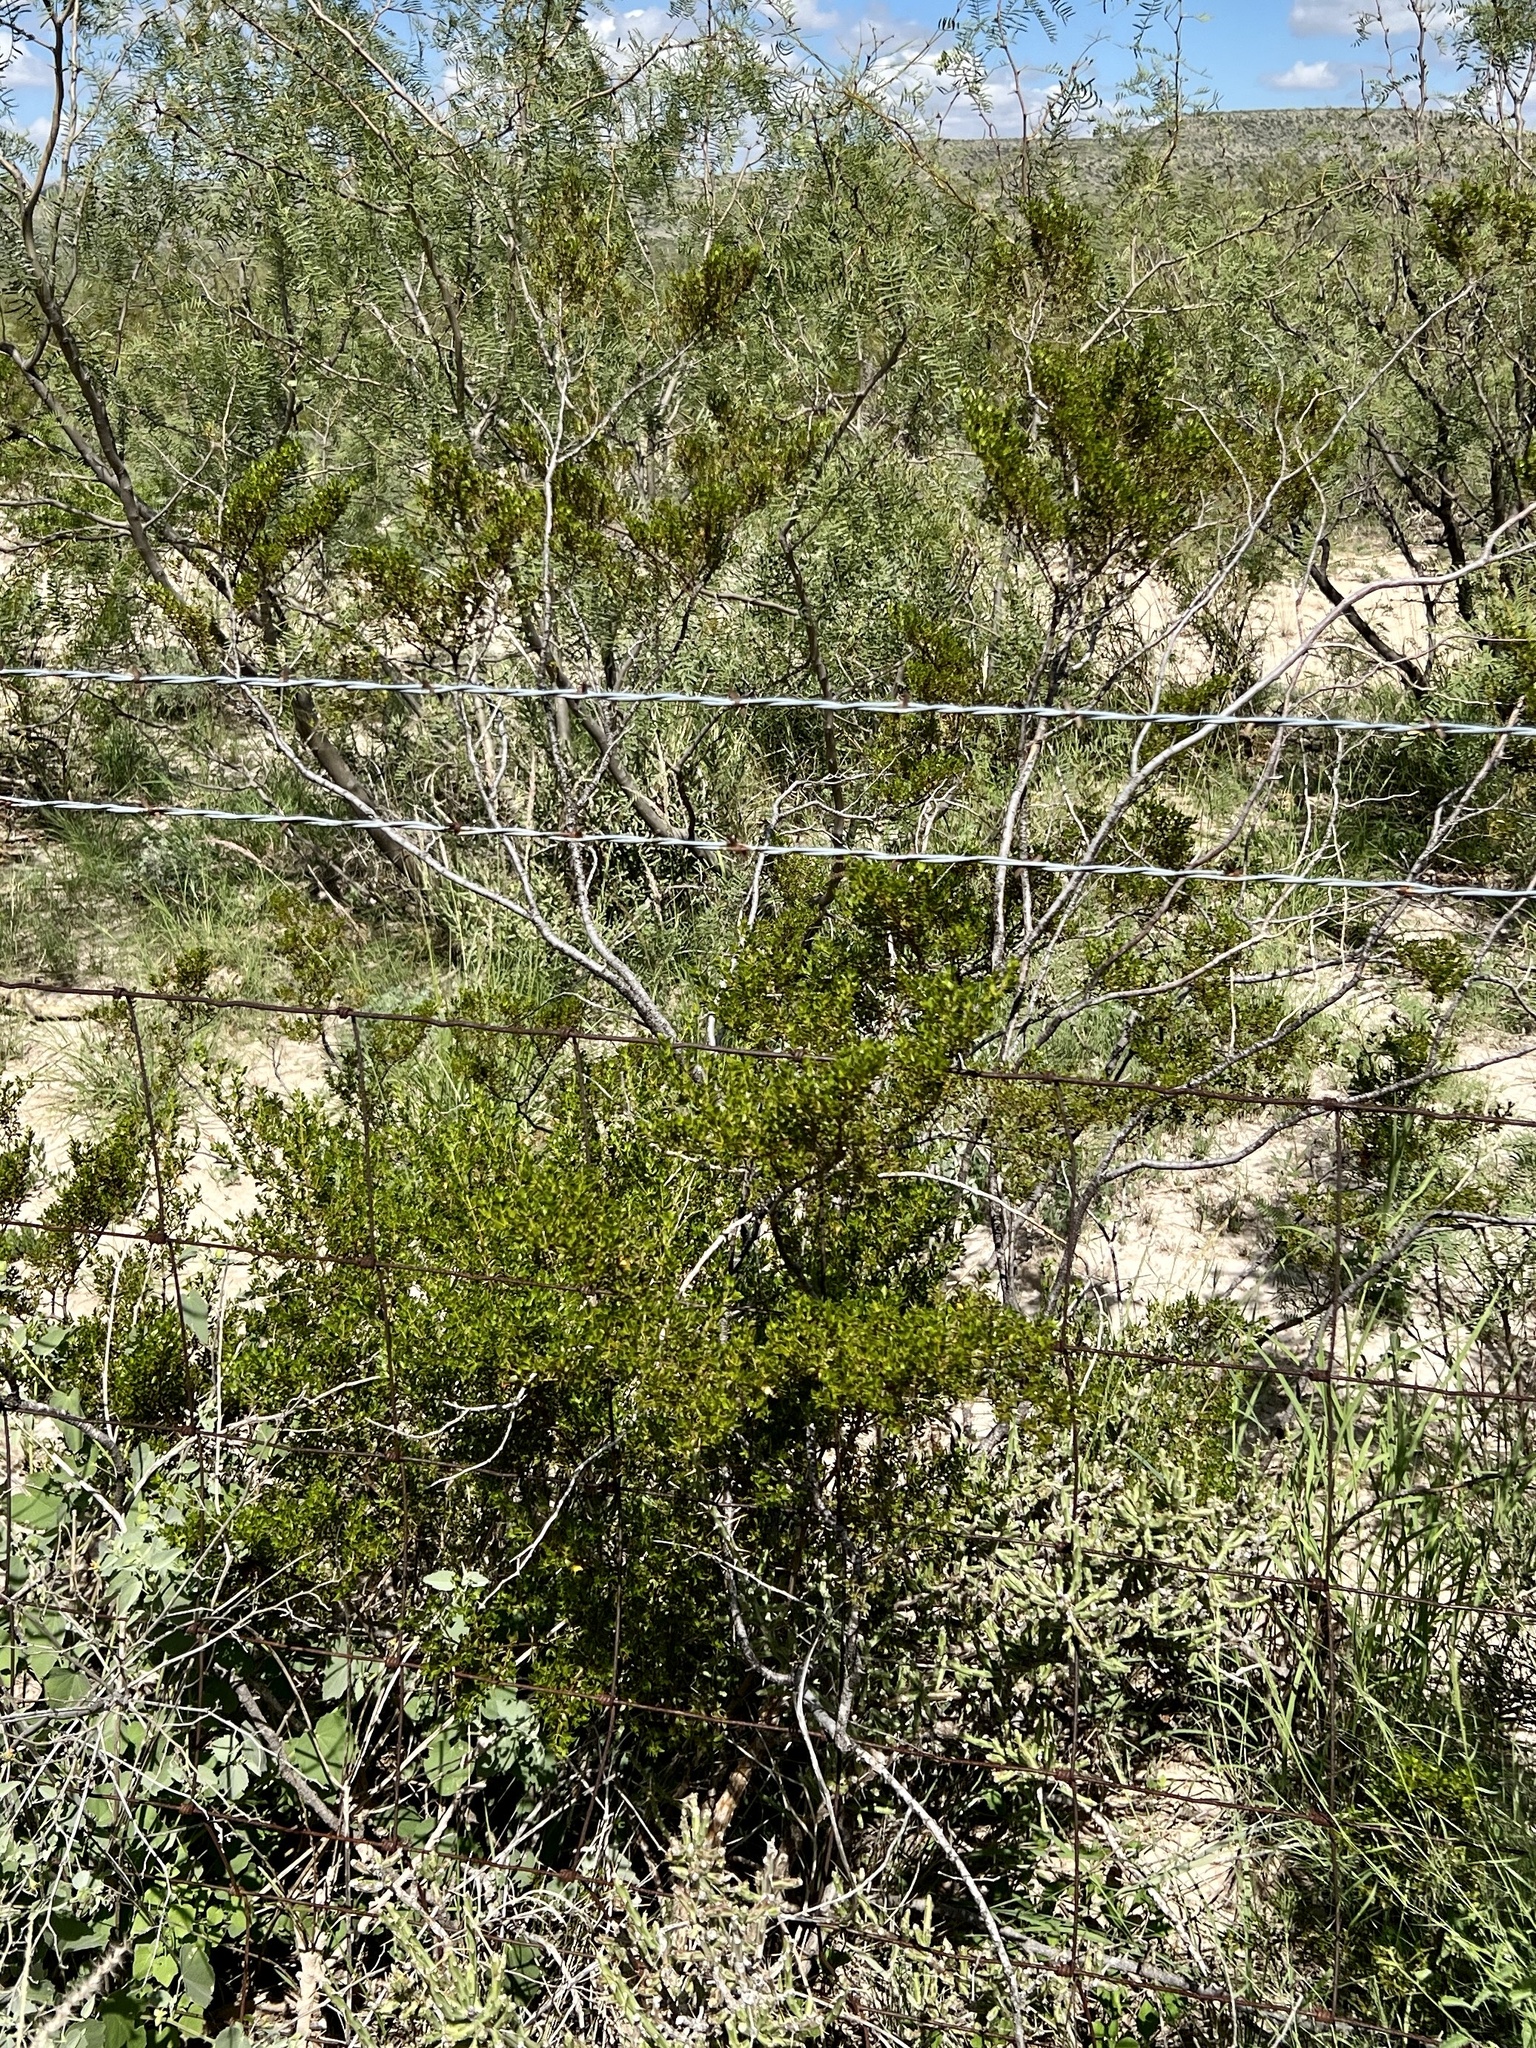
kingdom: Plantae
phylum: Tracheophyta
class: Magnoliopsida
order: Zygophyllales
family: Zygophyllaceae
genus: Larrea
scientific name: Larrea tridentata
